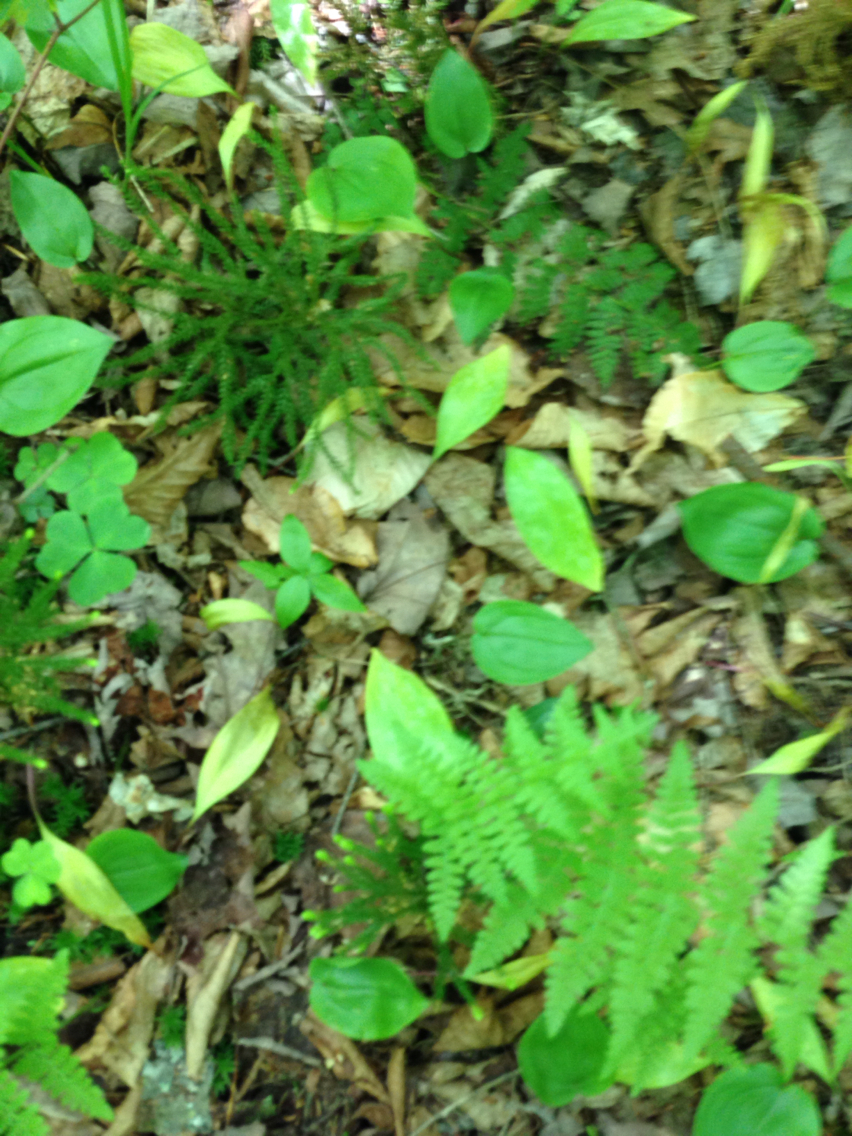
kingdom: Plantae
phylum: Tracheophyta
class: Liliopsida
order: Liliales
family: Liliaceae
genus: Erythronium
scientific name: Erythronium americanum
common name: Yellow adder's-tongue
